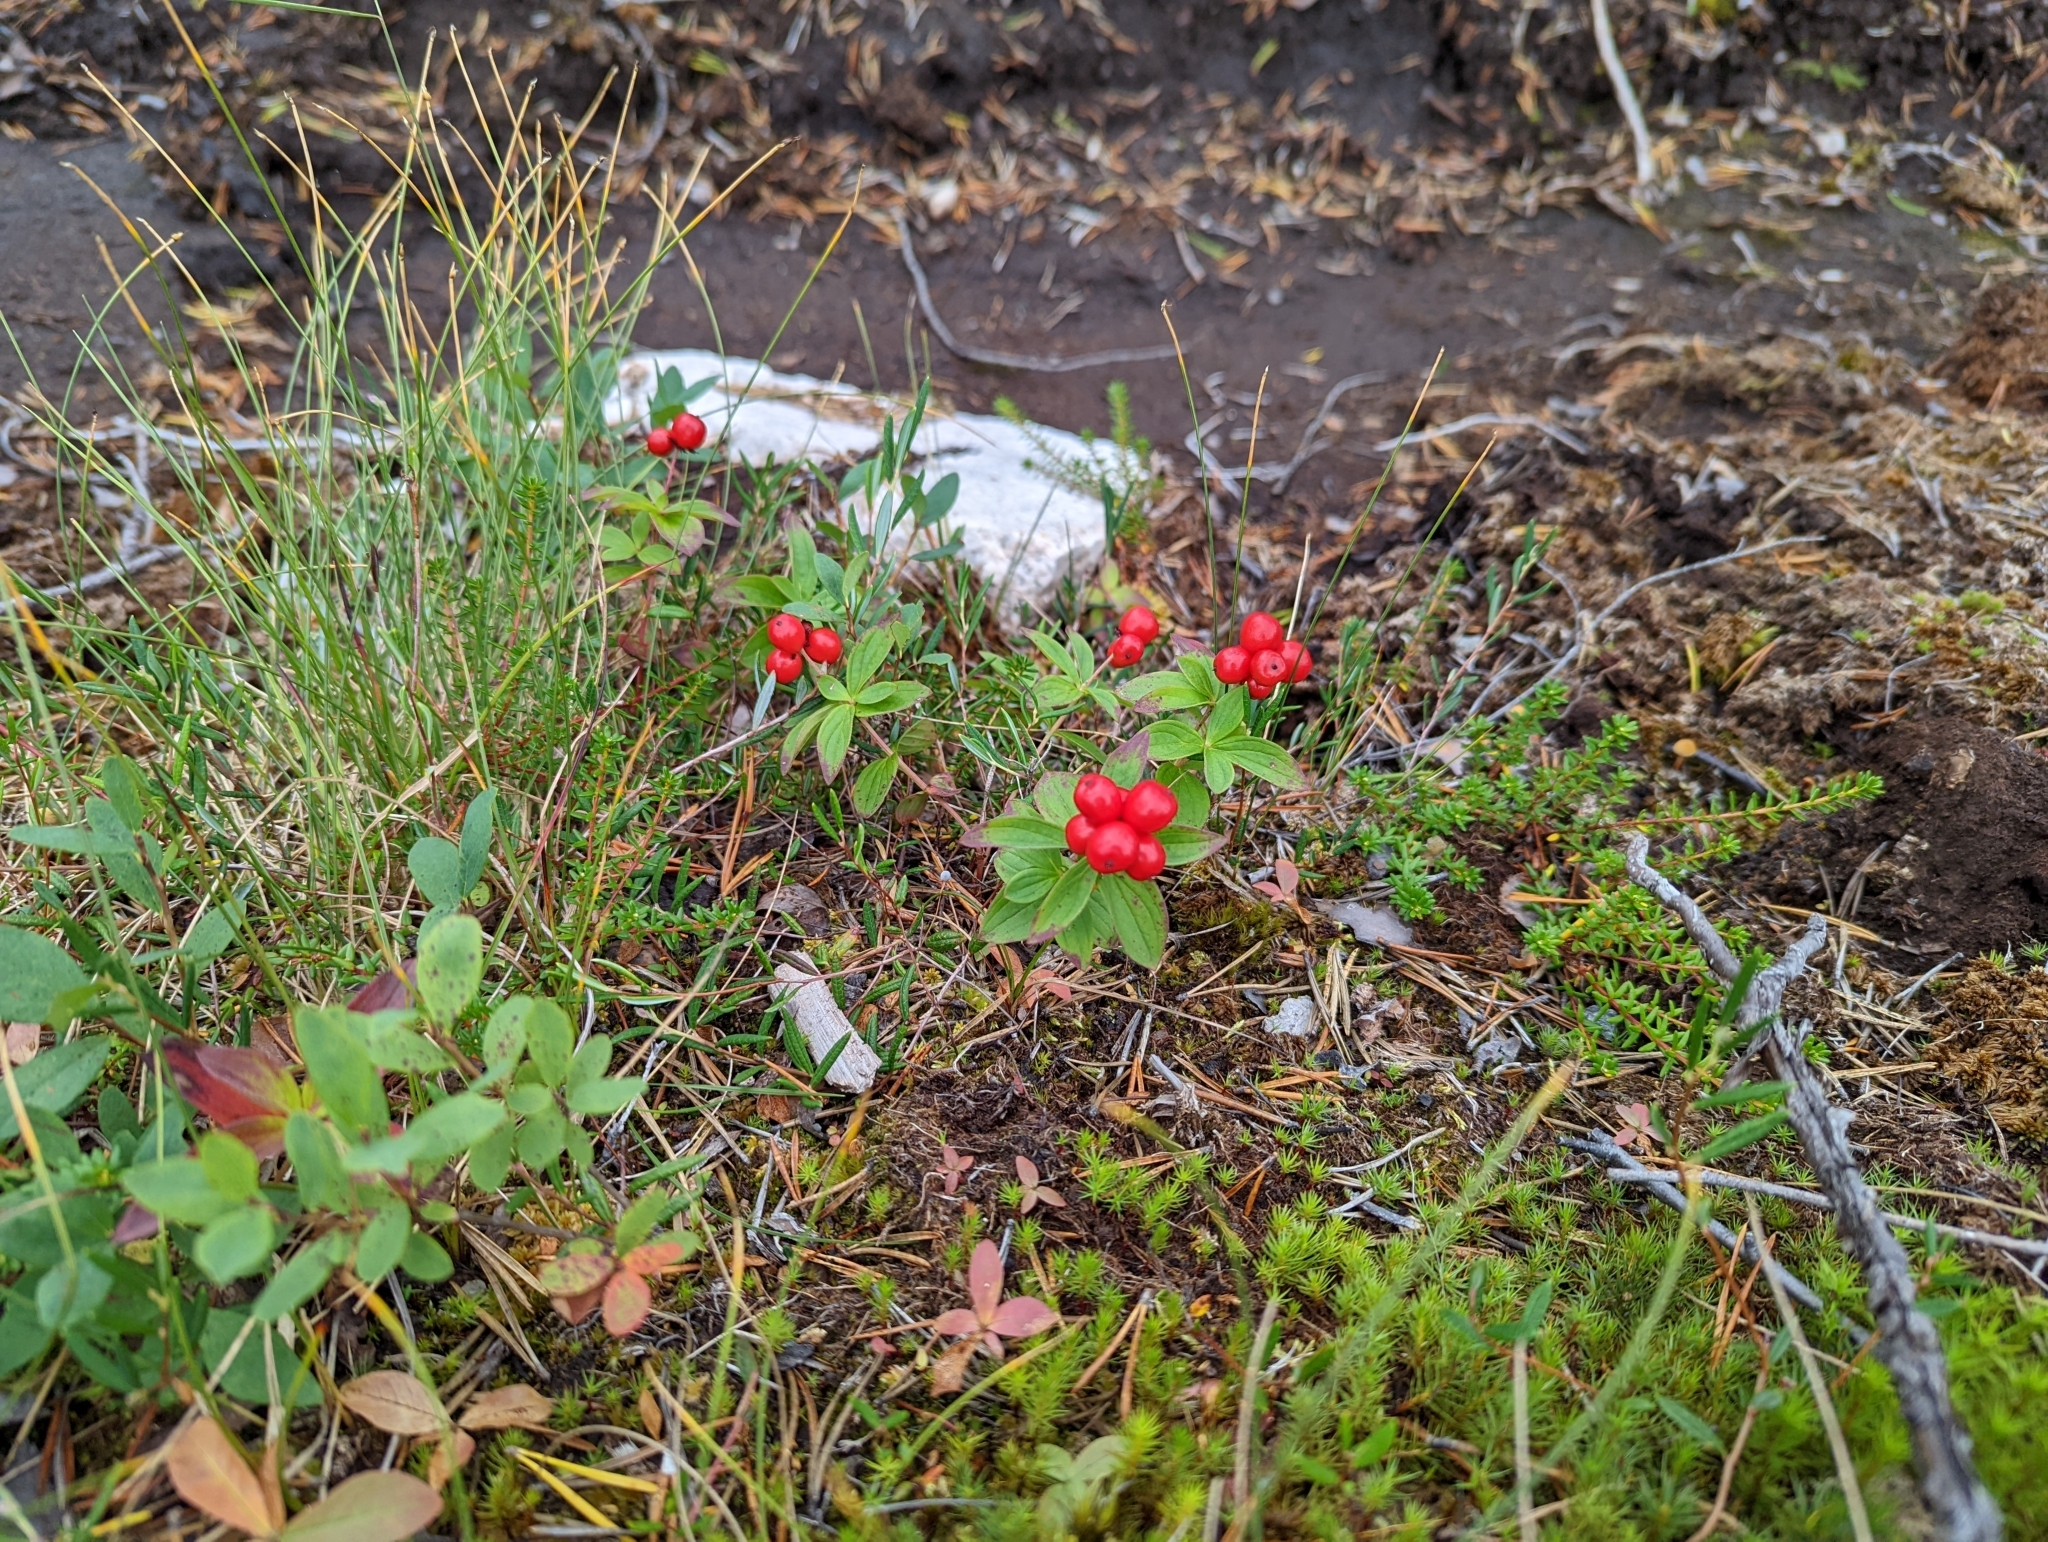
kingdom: Plantae
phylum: Tracheophyta
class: Magnoliopsida
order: Cornales
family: Cornaceae
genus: Cornus
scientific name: Cornus suecica
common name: Dwarf cornel
